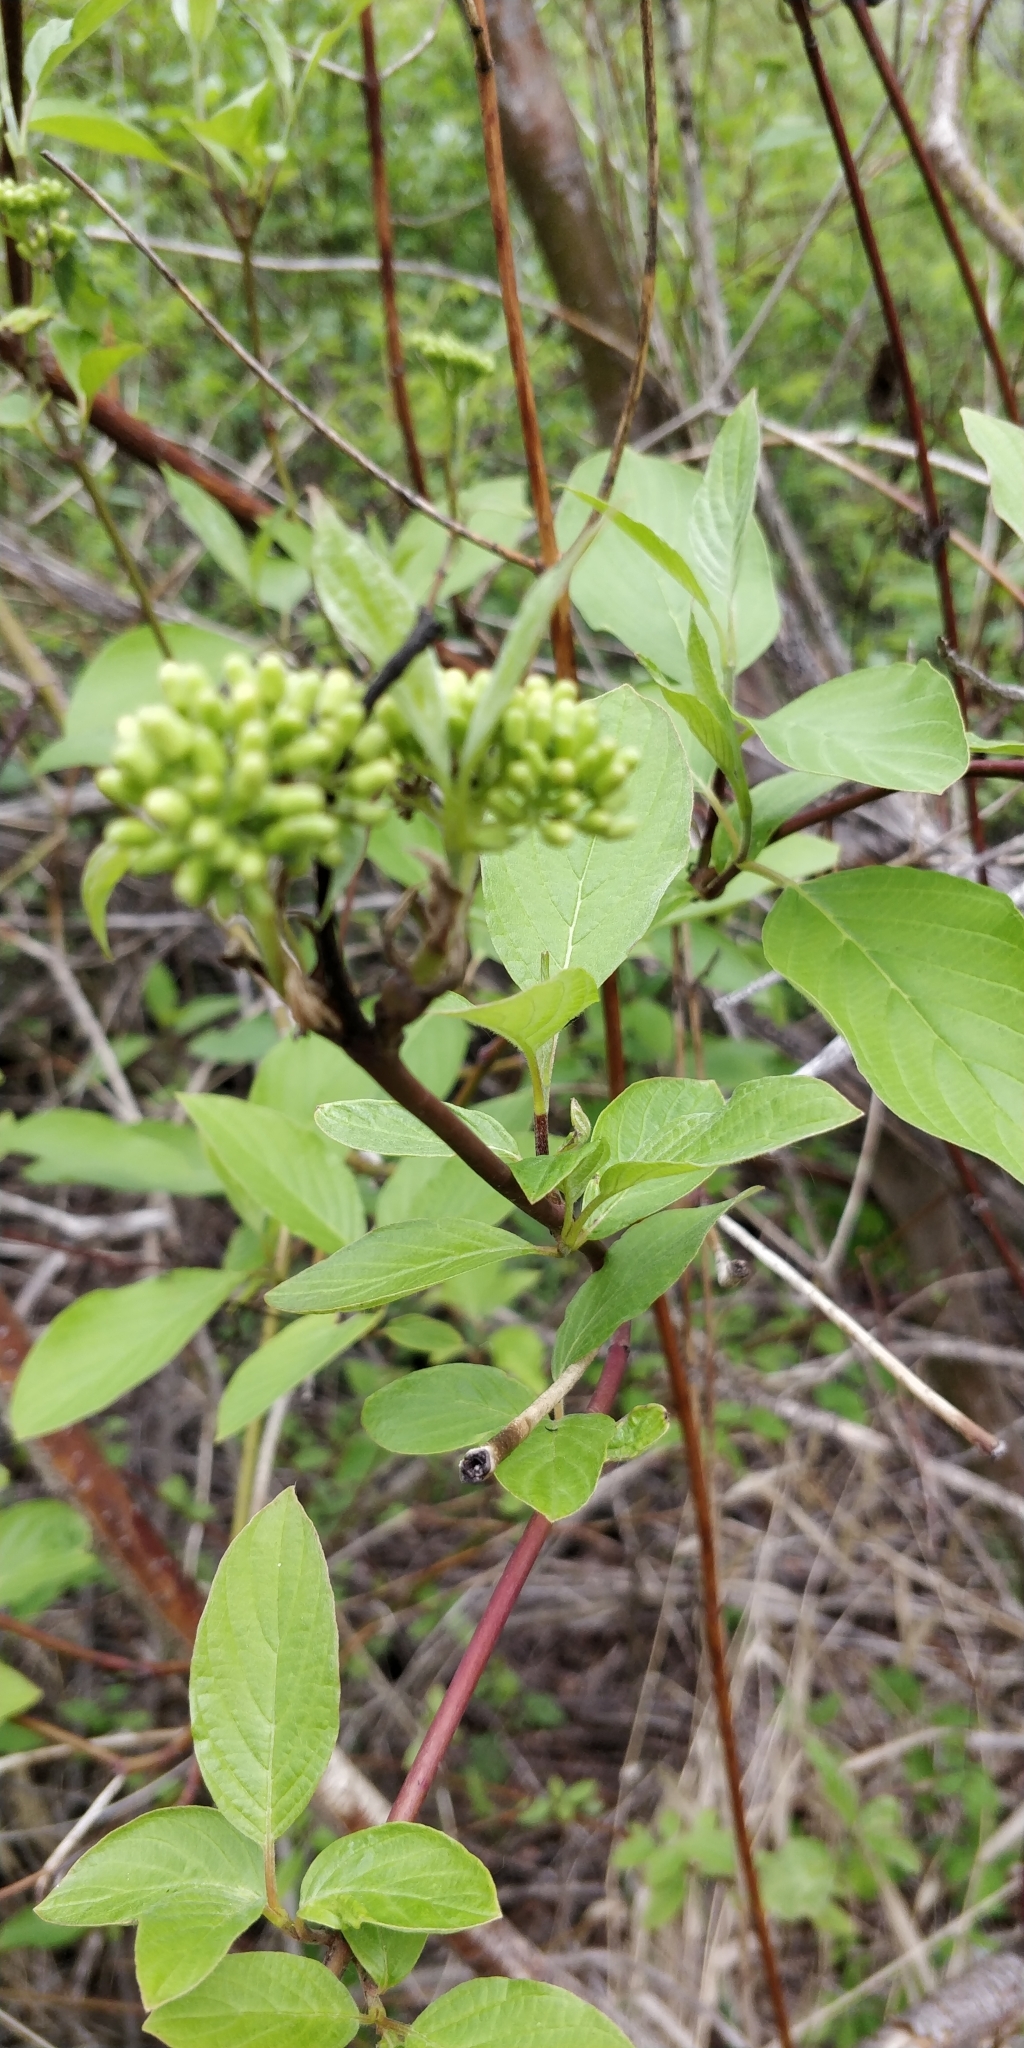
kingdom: Plantae
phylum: Tracheophyta
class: Magnoliopsida
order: Cornales
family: Cornaceae
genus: Cornus
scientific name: Cornus sericea
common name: Red-osier dogwood
